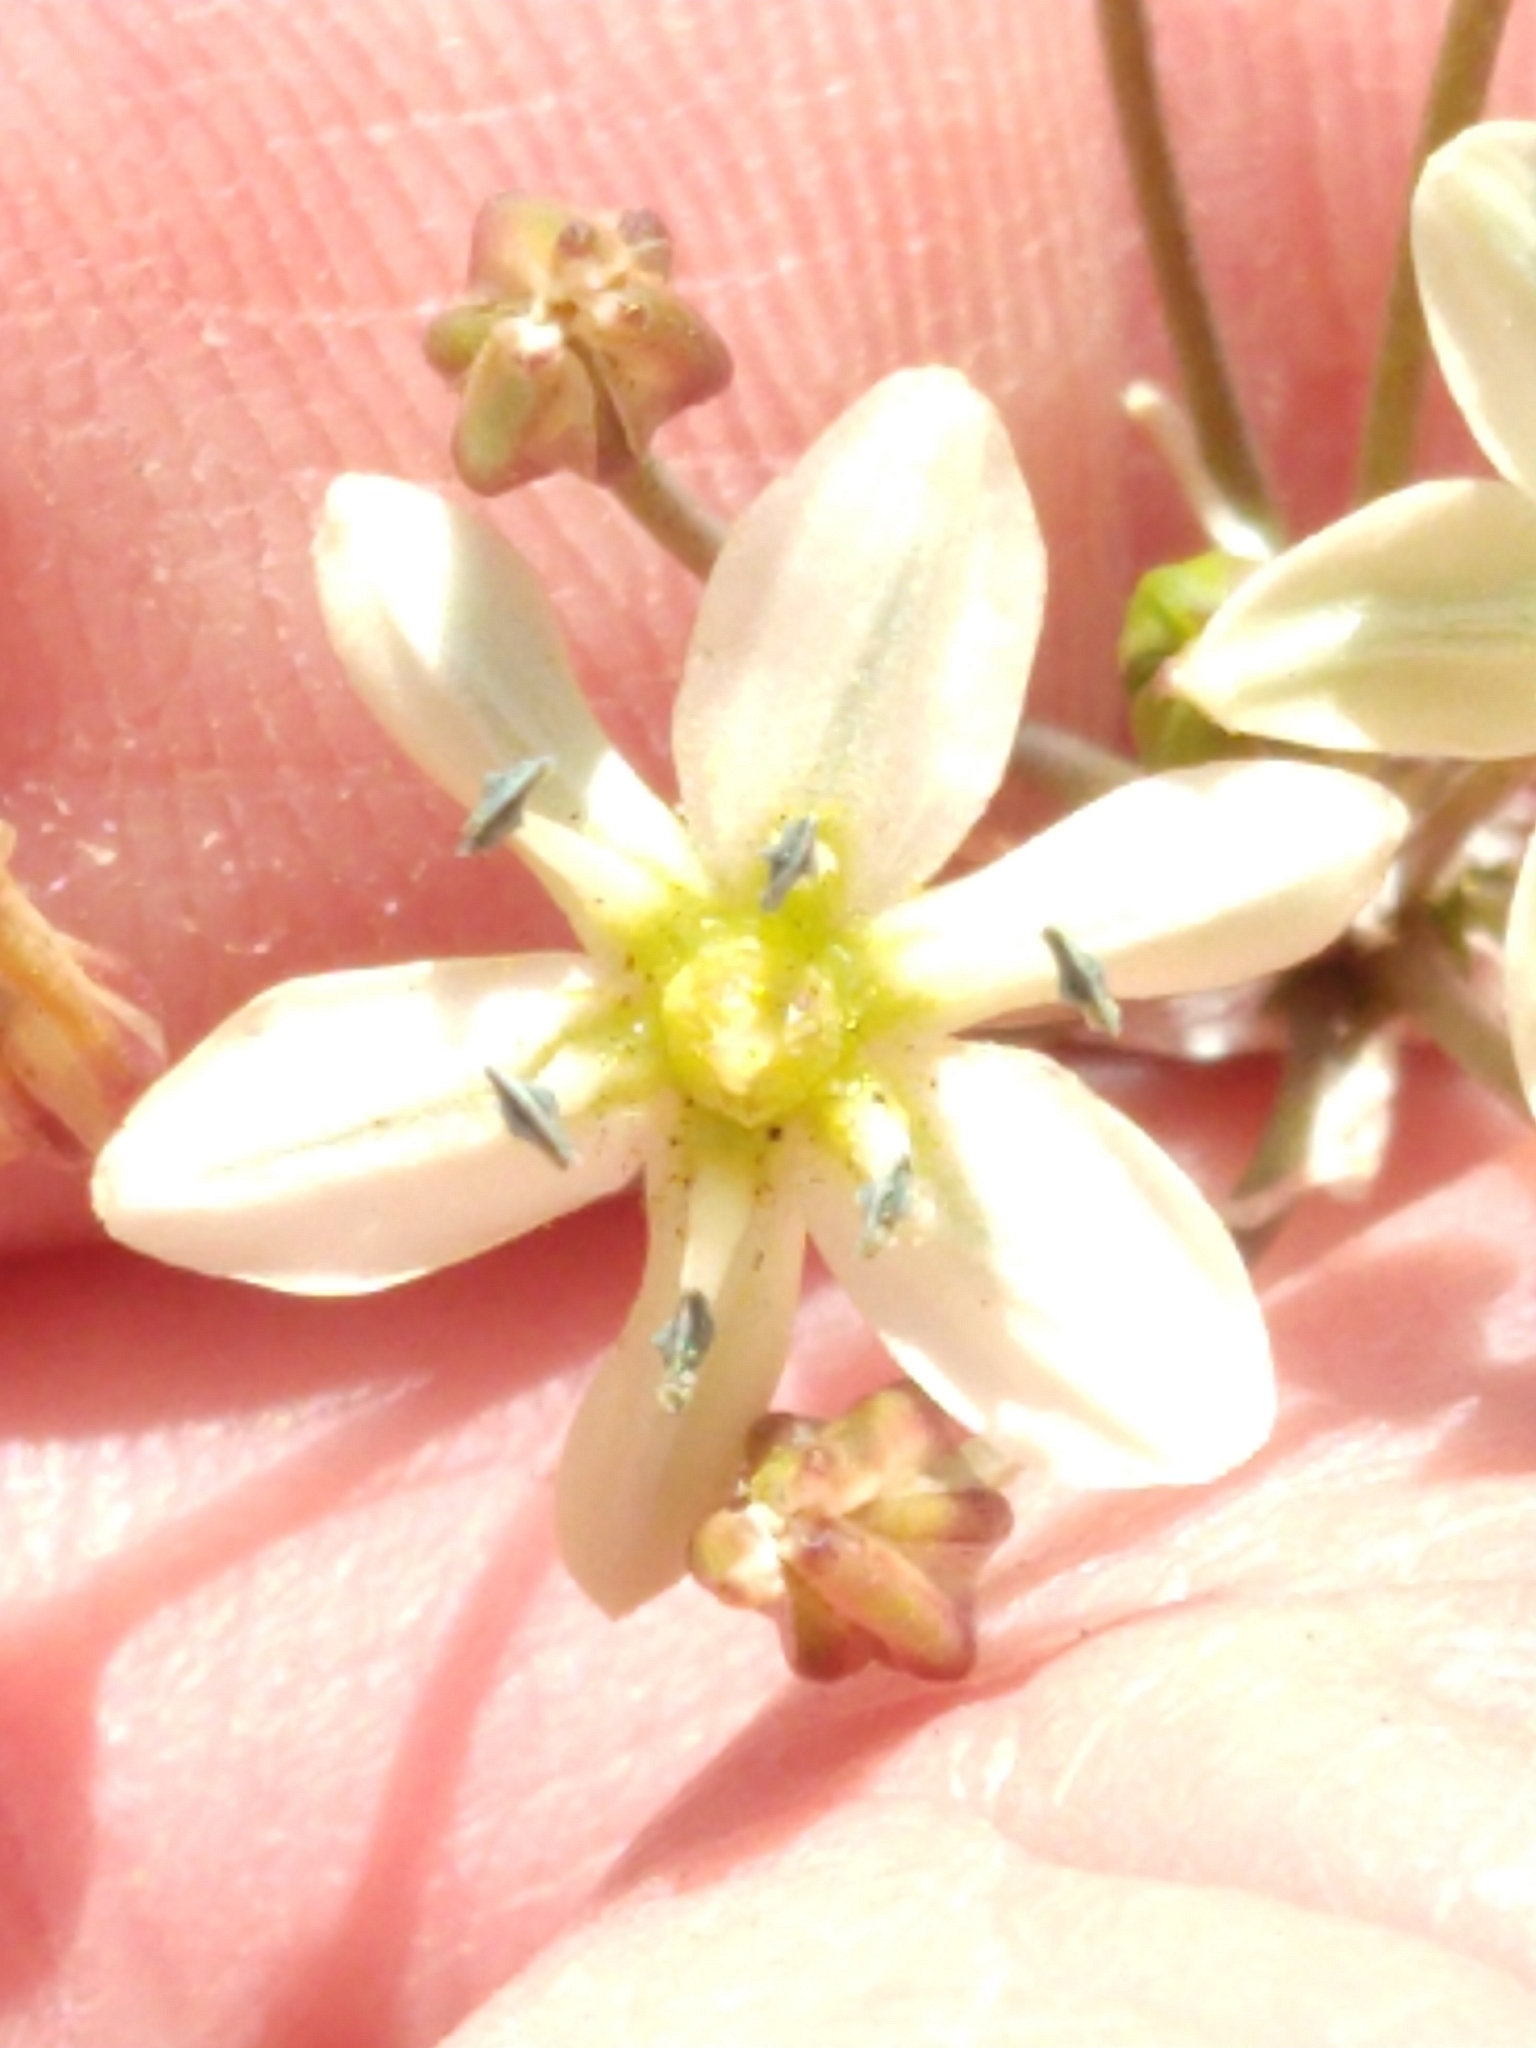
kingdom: Plantae
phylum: Tracheophyta
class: Liliopsida
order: Asparagales
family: Asparagaceae
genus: Muilla
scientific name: Muilla maritima
